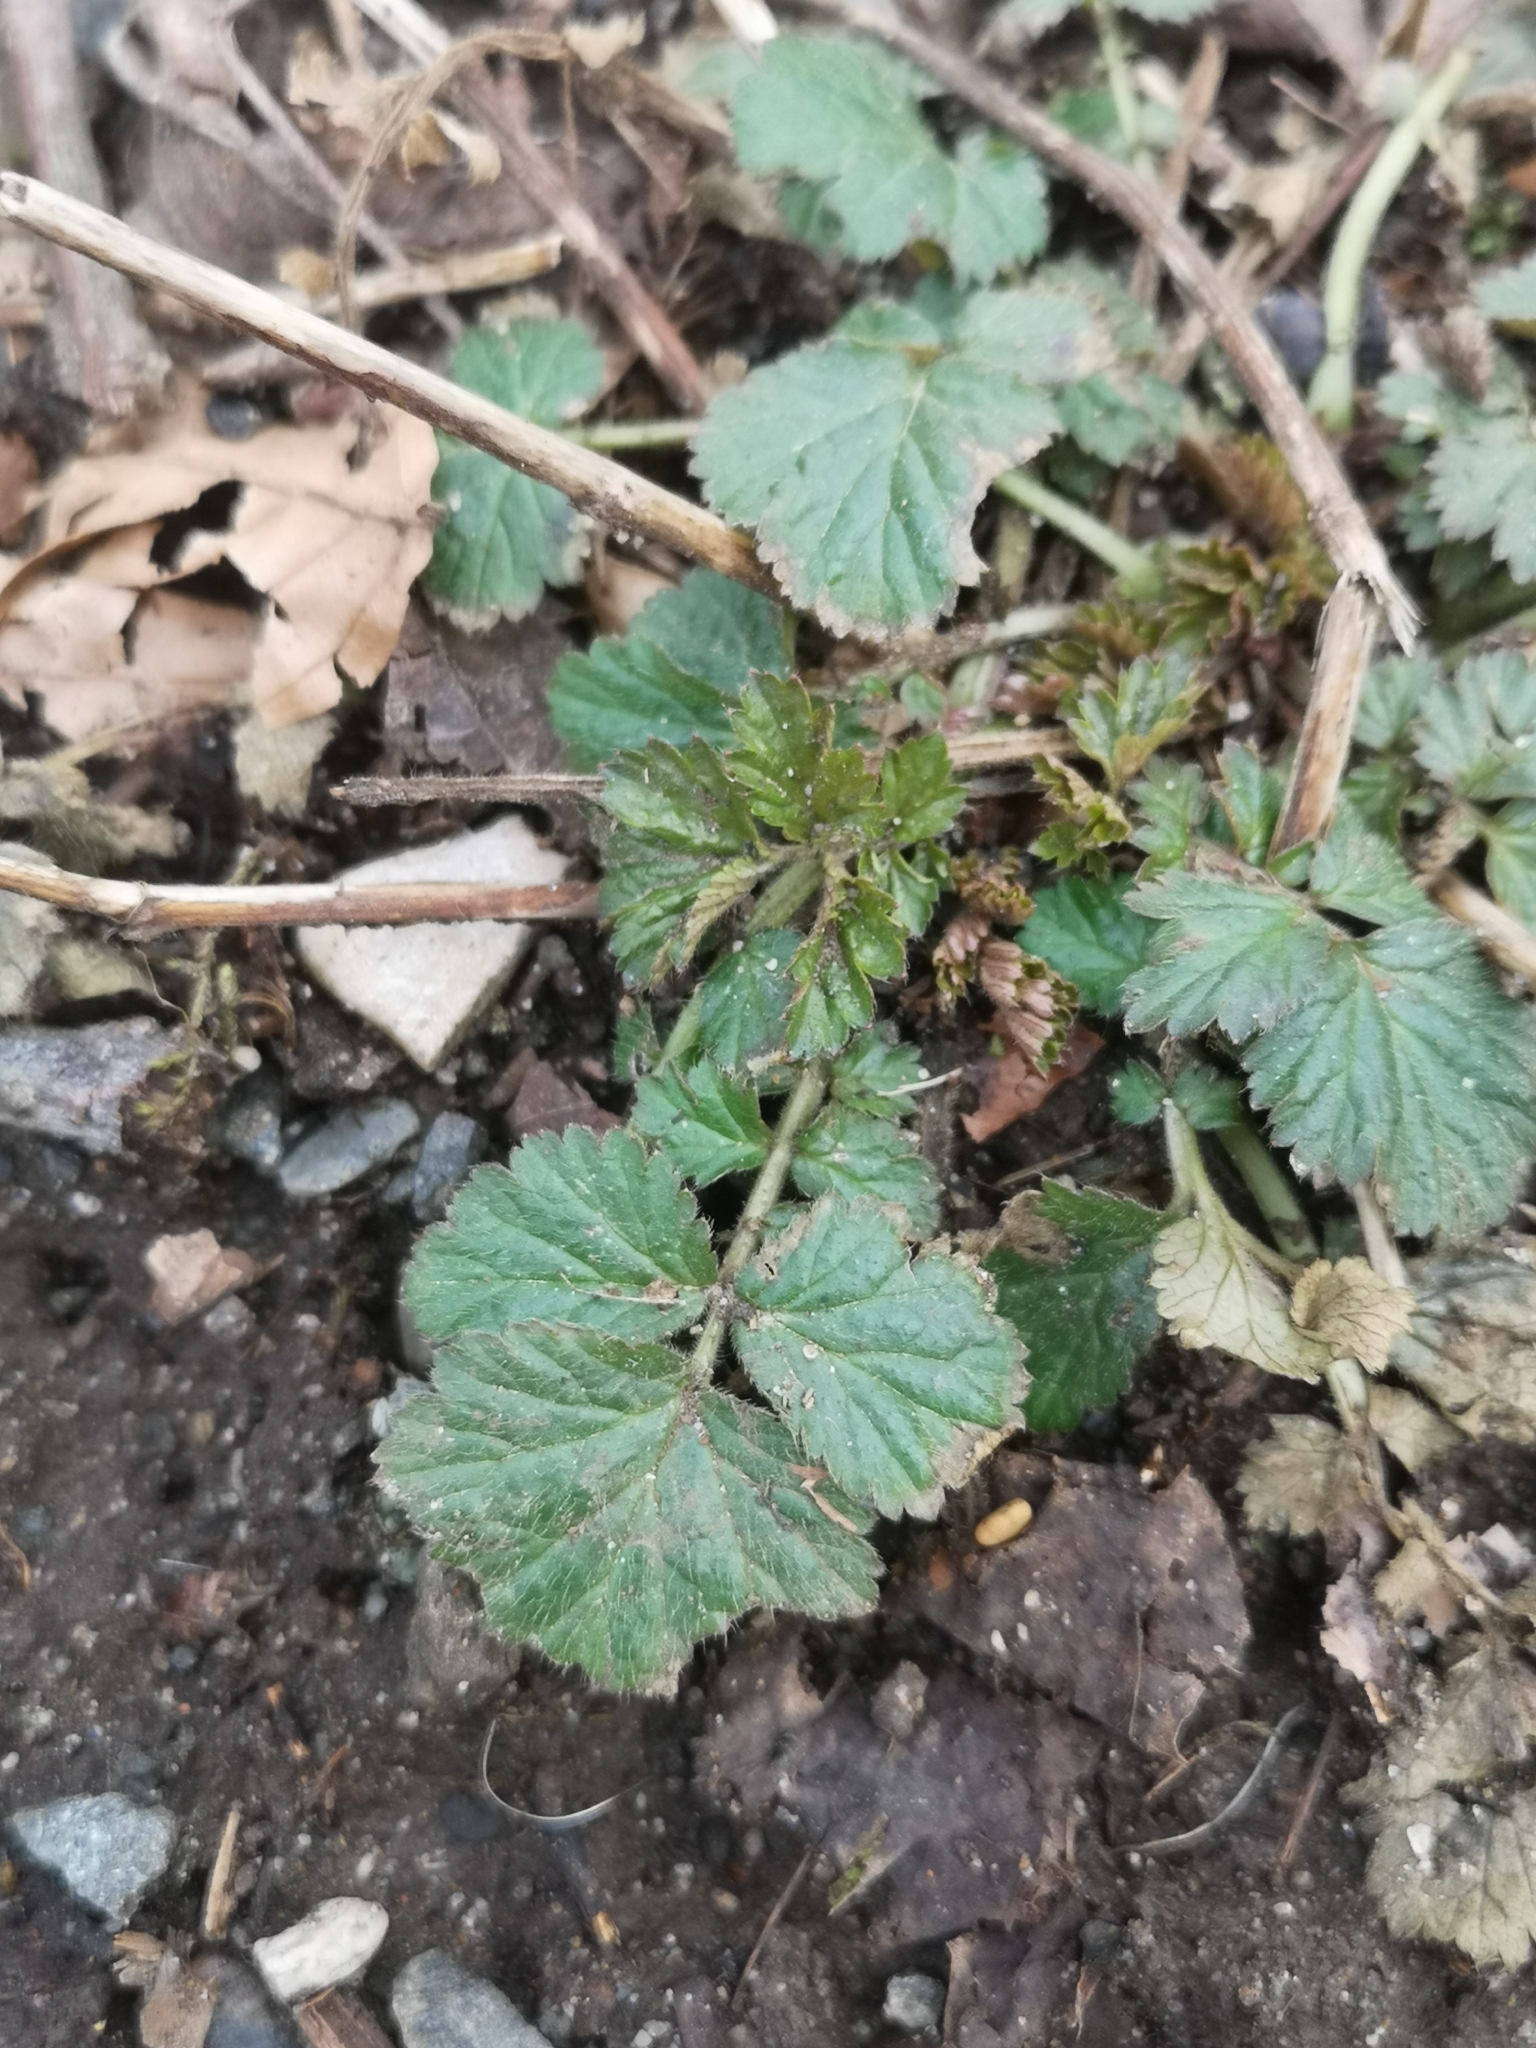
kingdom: Plantae
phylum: Tracheophyta
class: Magnoliopsida
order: Rosales
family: Rosaceae
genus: Geum
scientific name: Geum urbanum
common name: Wood avens
